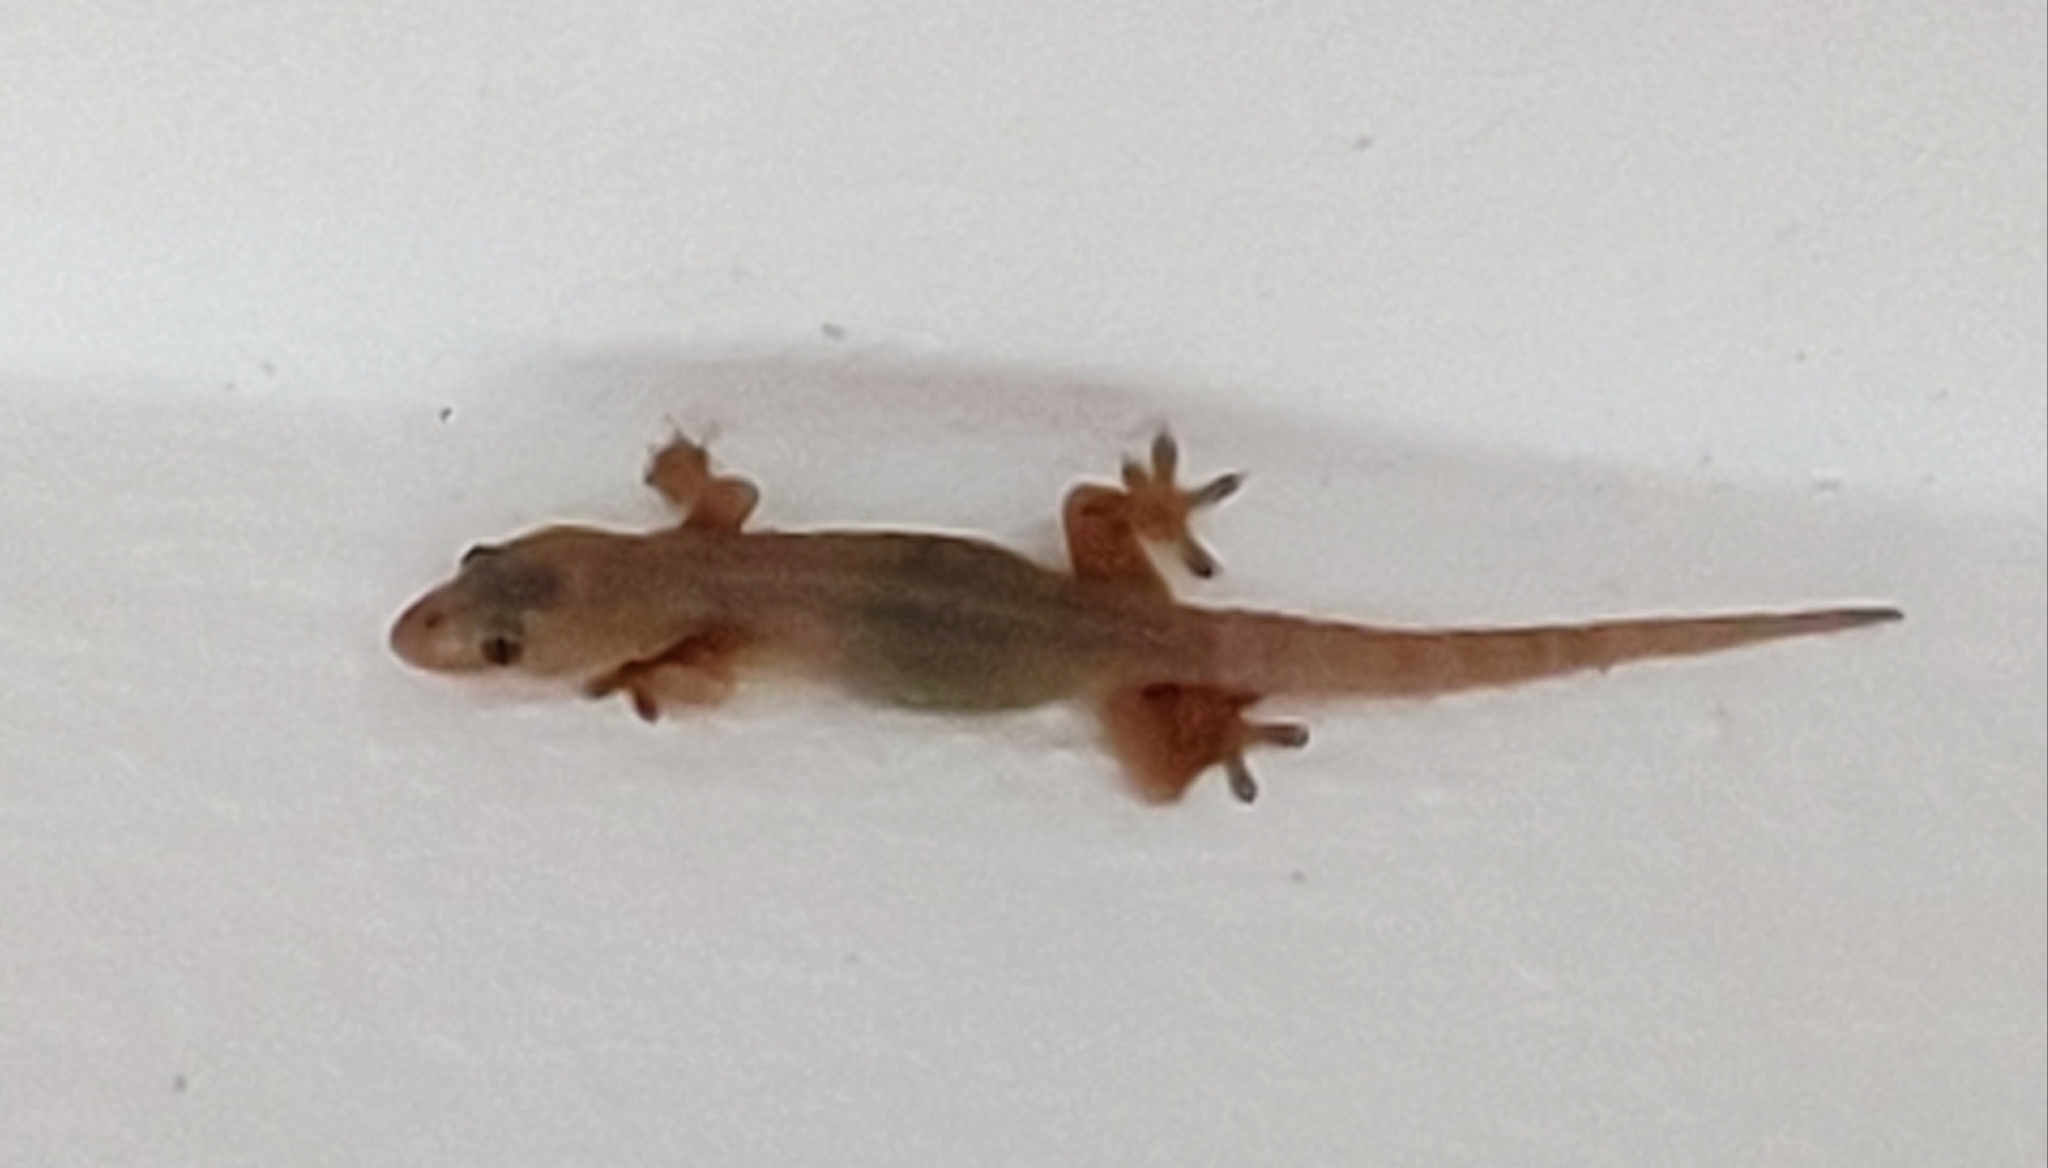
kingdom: Animalia
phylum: Chordata
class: Squamata
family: Gekkonidae
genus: Hemidactylus
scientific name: Hemidactylus frenatus
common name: Common house gecko
